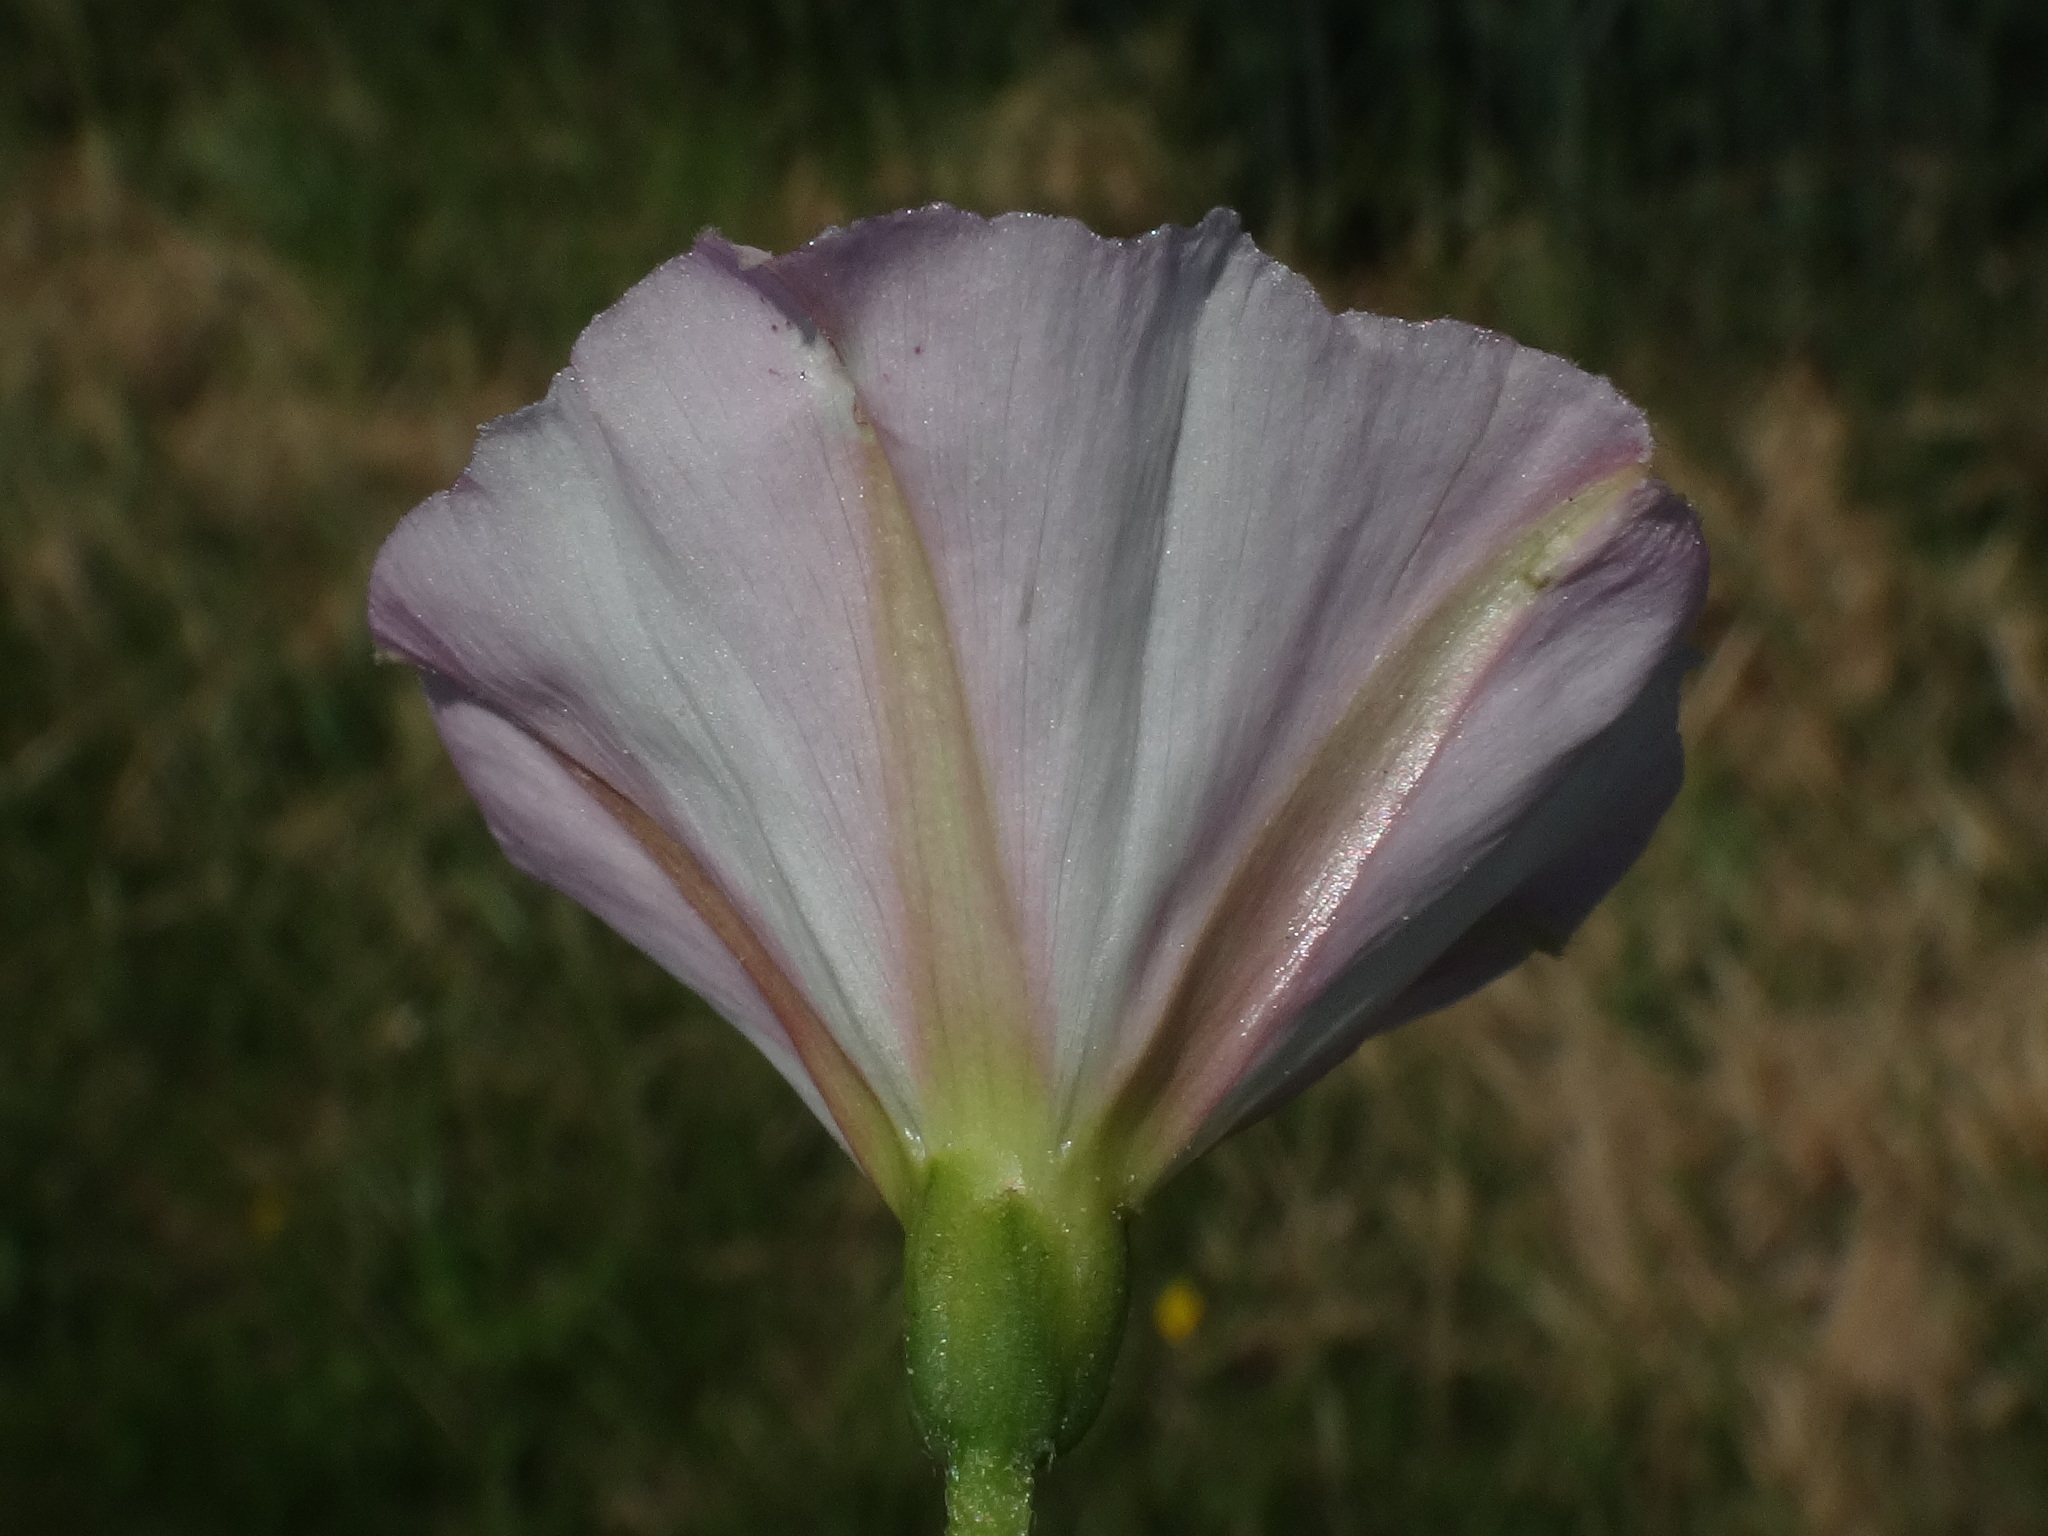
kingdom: Plantae
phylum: Tracheophyta
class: Magnoliopsida
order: Solanales
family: Convolvulaceae
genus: Convolvulus
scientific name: Convolvulus arvensis
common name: Field bindweed
